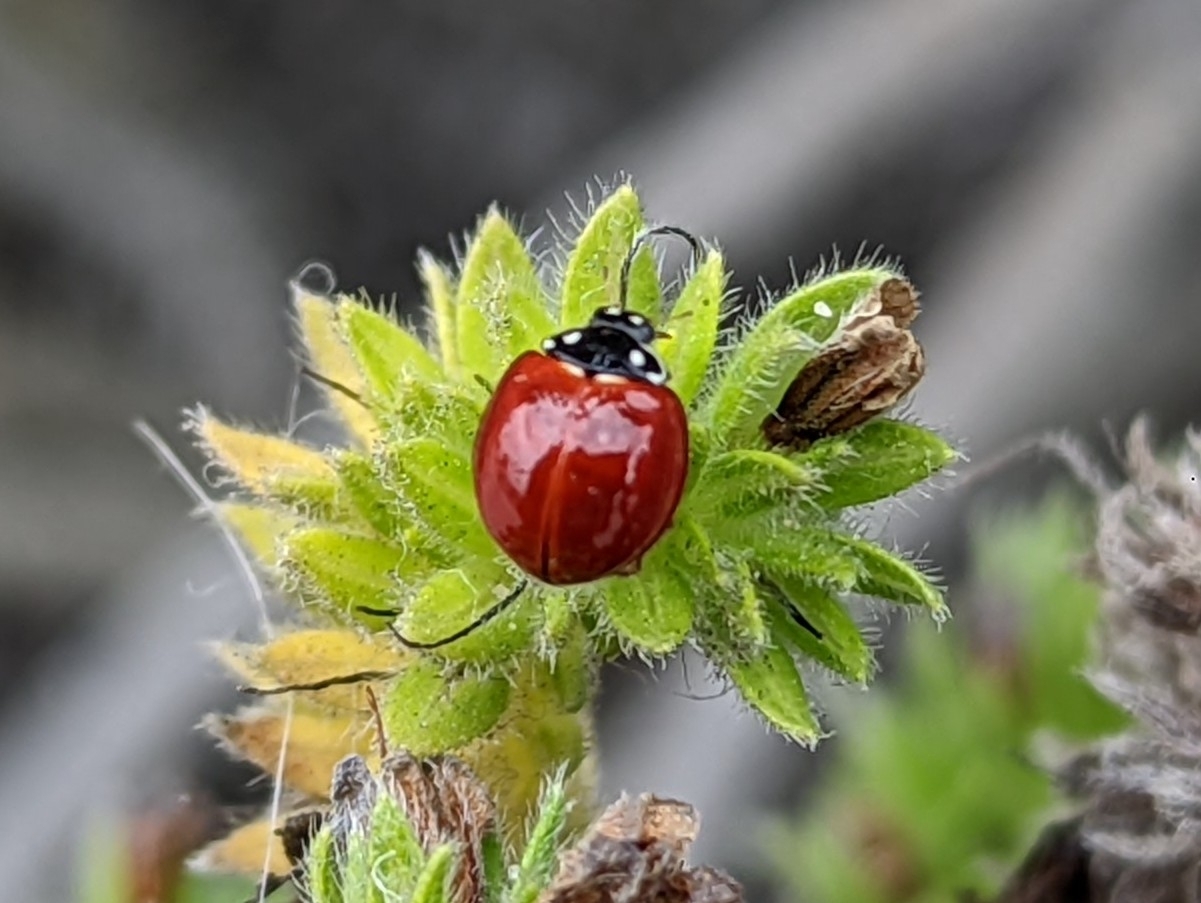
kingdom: Animalia
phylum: Arthropoda
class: Insecta
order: Coleoptera
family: Coccinellidae
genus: Cycloneda
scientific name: Cycloneda sanguinea
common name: Ladybird beetle
